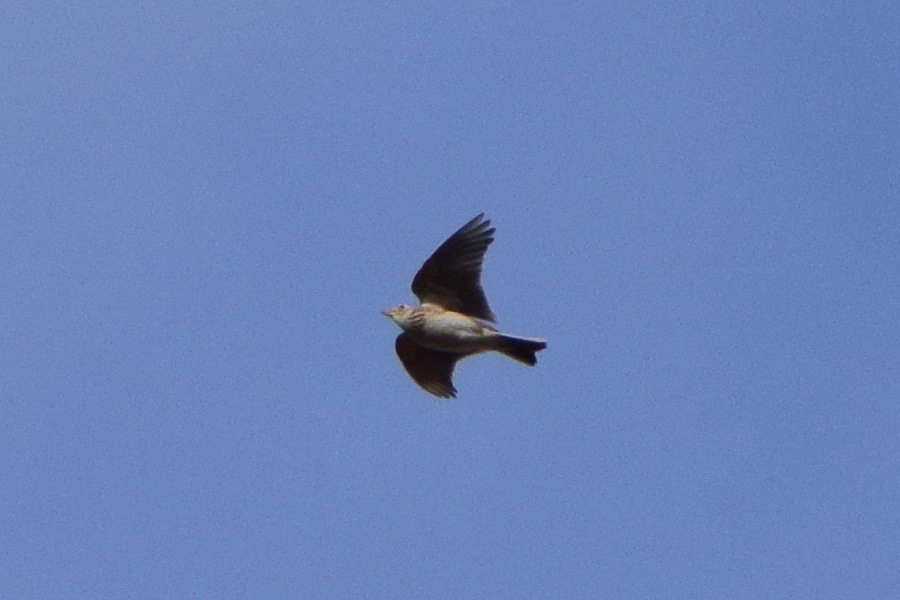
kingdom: Animalia
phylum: Chordata
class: Aves
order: Passeriformes
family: Alaudidae
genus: Alauda
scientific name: Alauda arvensis
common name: Eurasian skylark
